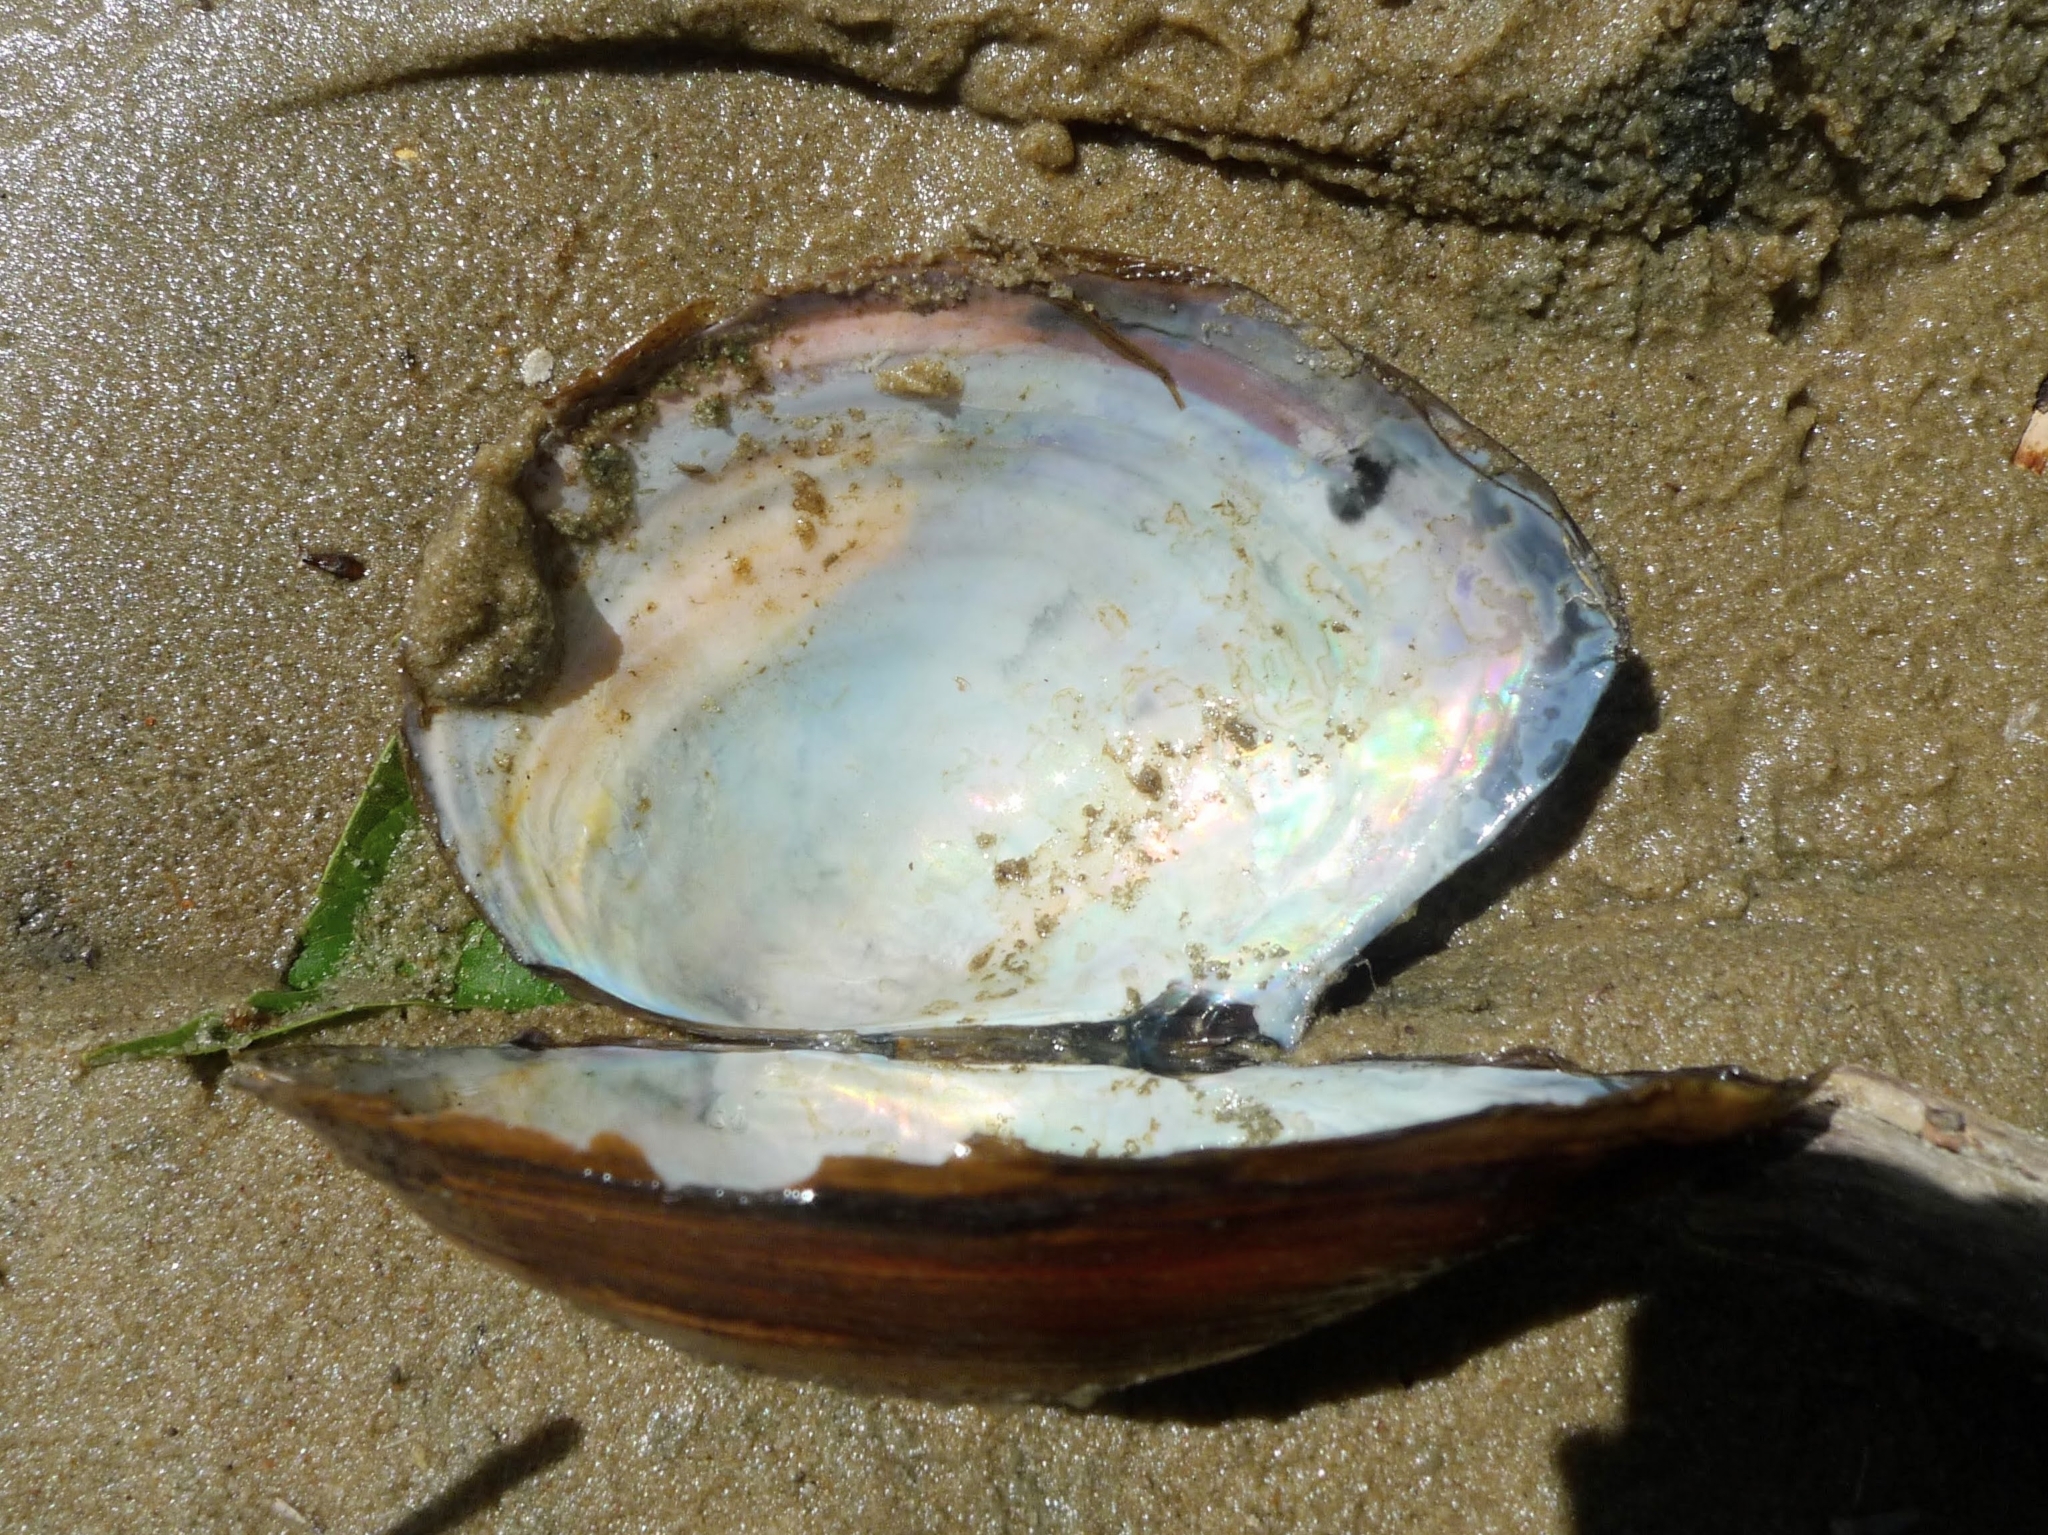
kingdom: Animalia
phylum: Mollusca
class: Bivalvia
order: Unionida
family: Unionidae
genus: Sinanodonta
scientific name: Sinanodonta woodiana
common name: Chinese pond mussel
